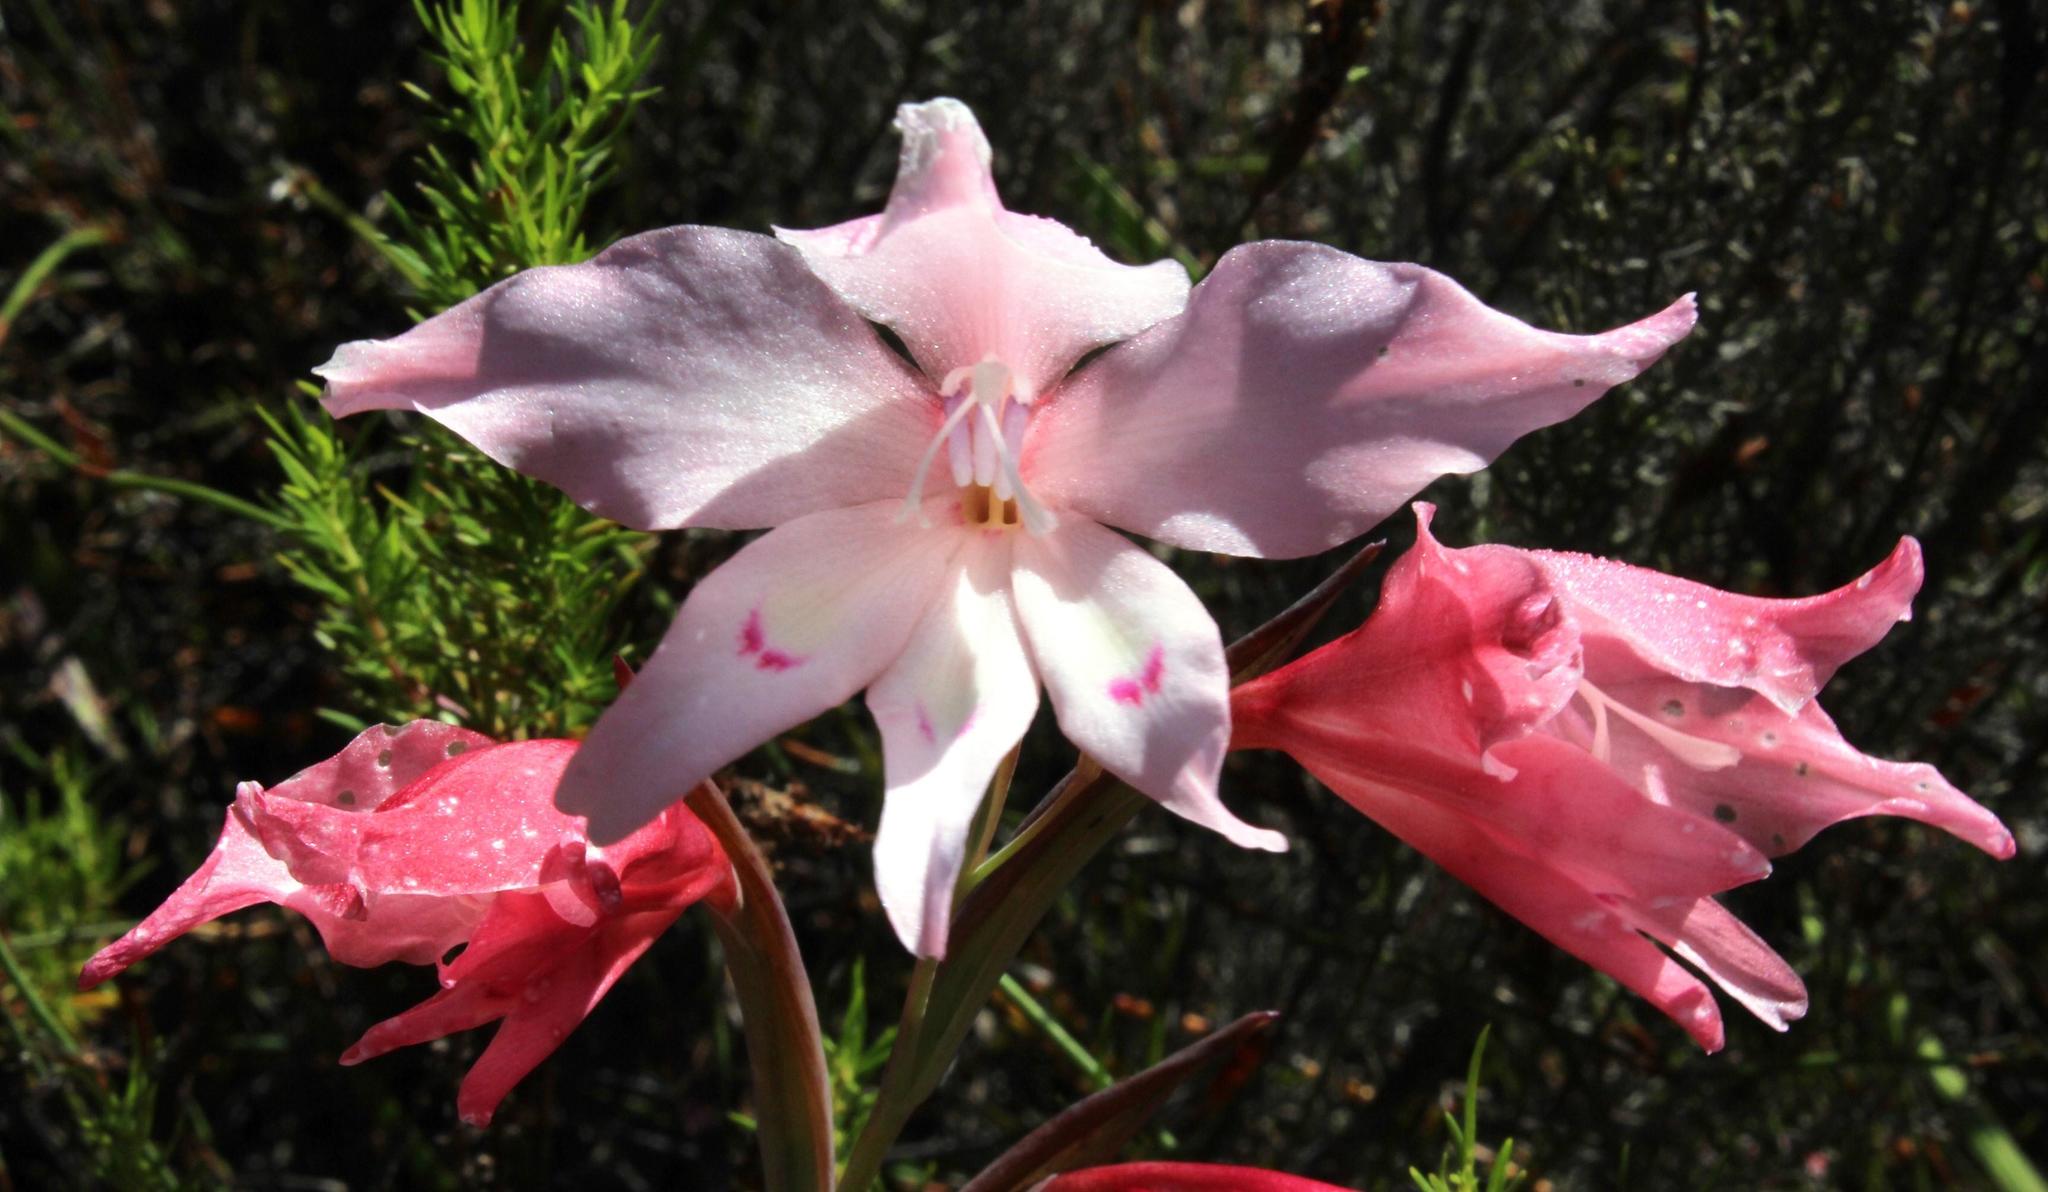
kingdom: Plantae
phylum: Tracheophyta
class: Liliopsida
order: Asparagales
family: Iridaceae
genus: Gladiolus
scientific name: Gladiolus carneus
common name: Painted-lady
